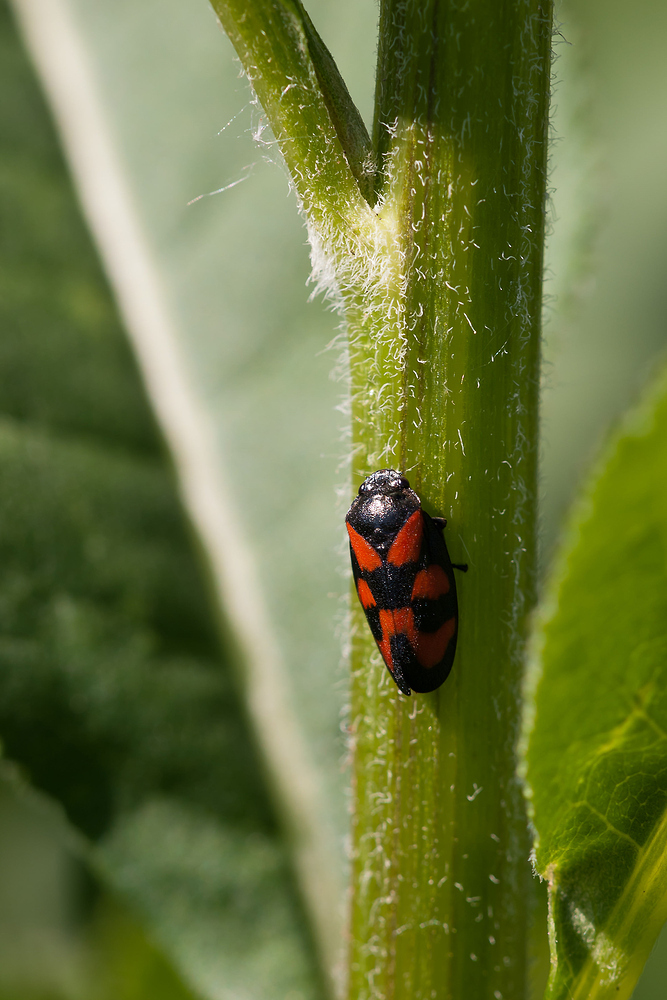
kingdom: Animalia
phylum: Arthropoda
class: Insecta
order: Hemiptera
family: Cercopidae
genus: Cercopis
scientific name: Cercopis vulnerata
